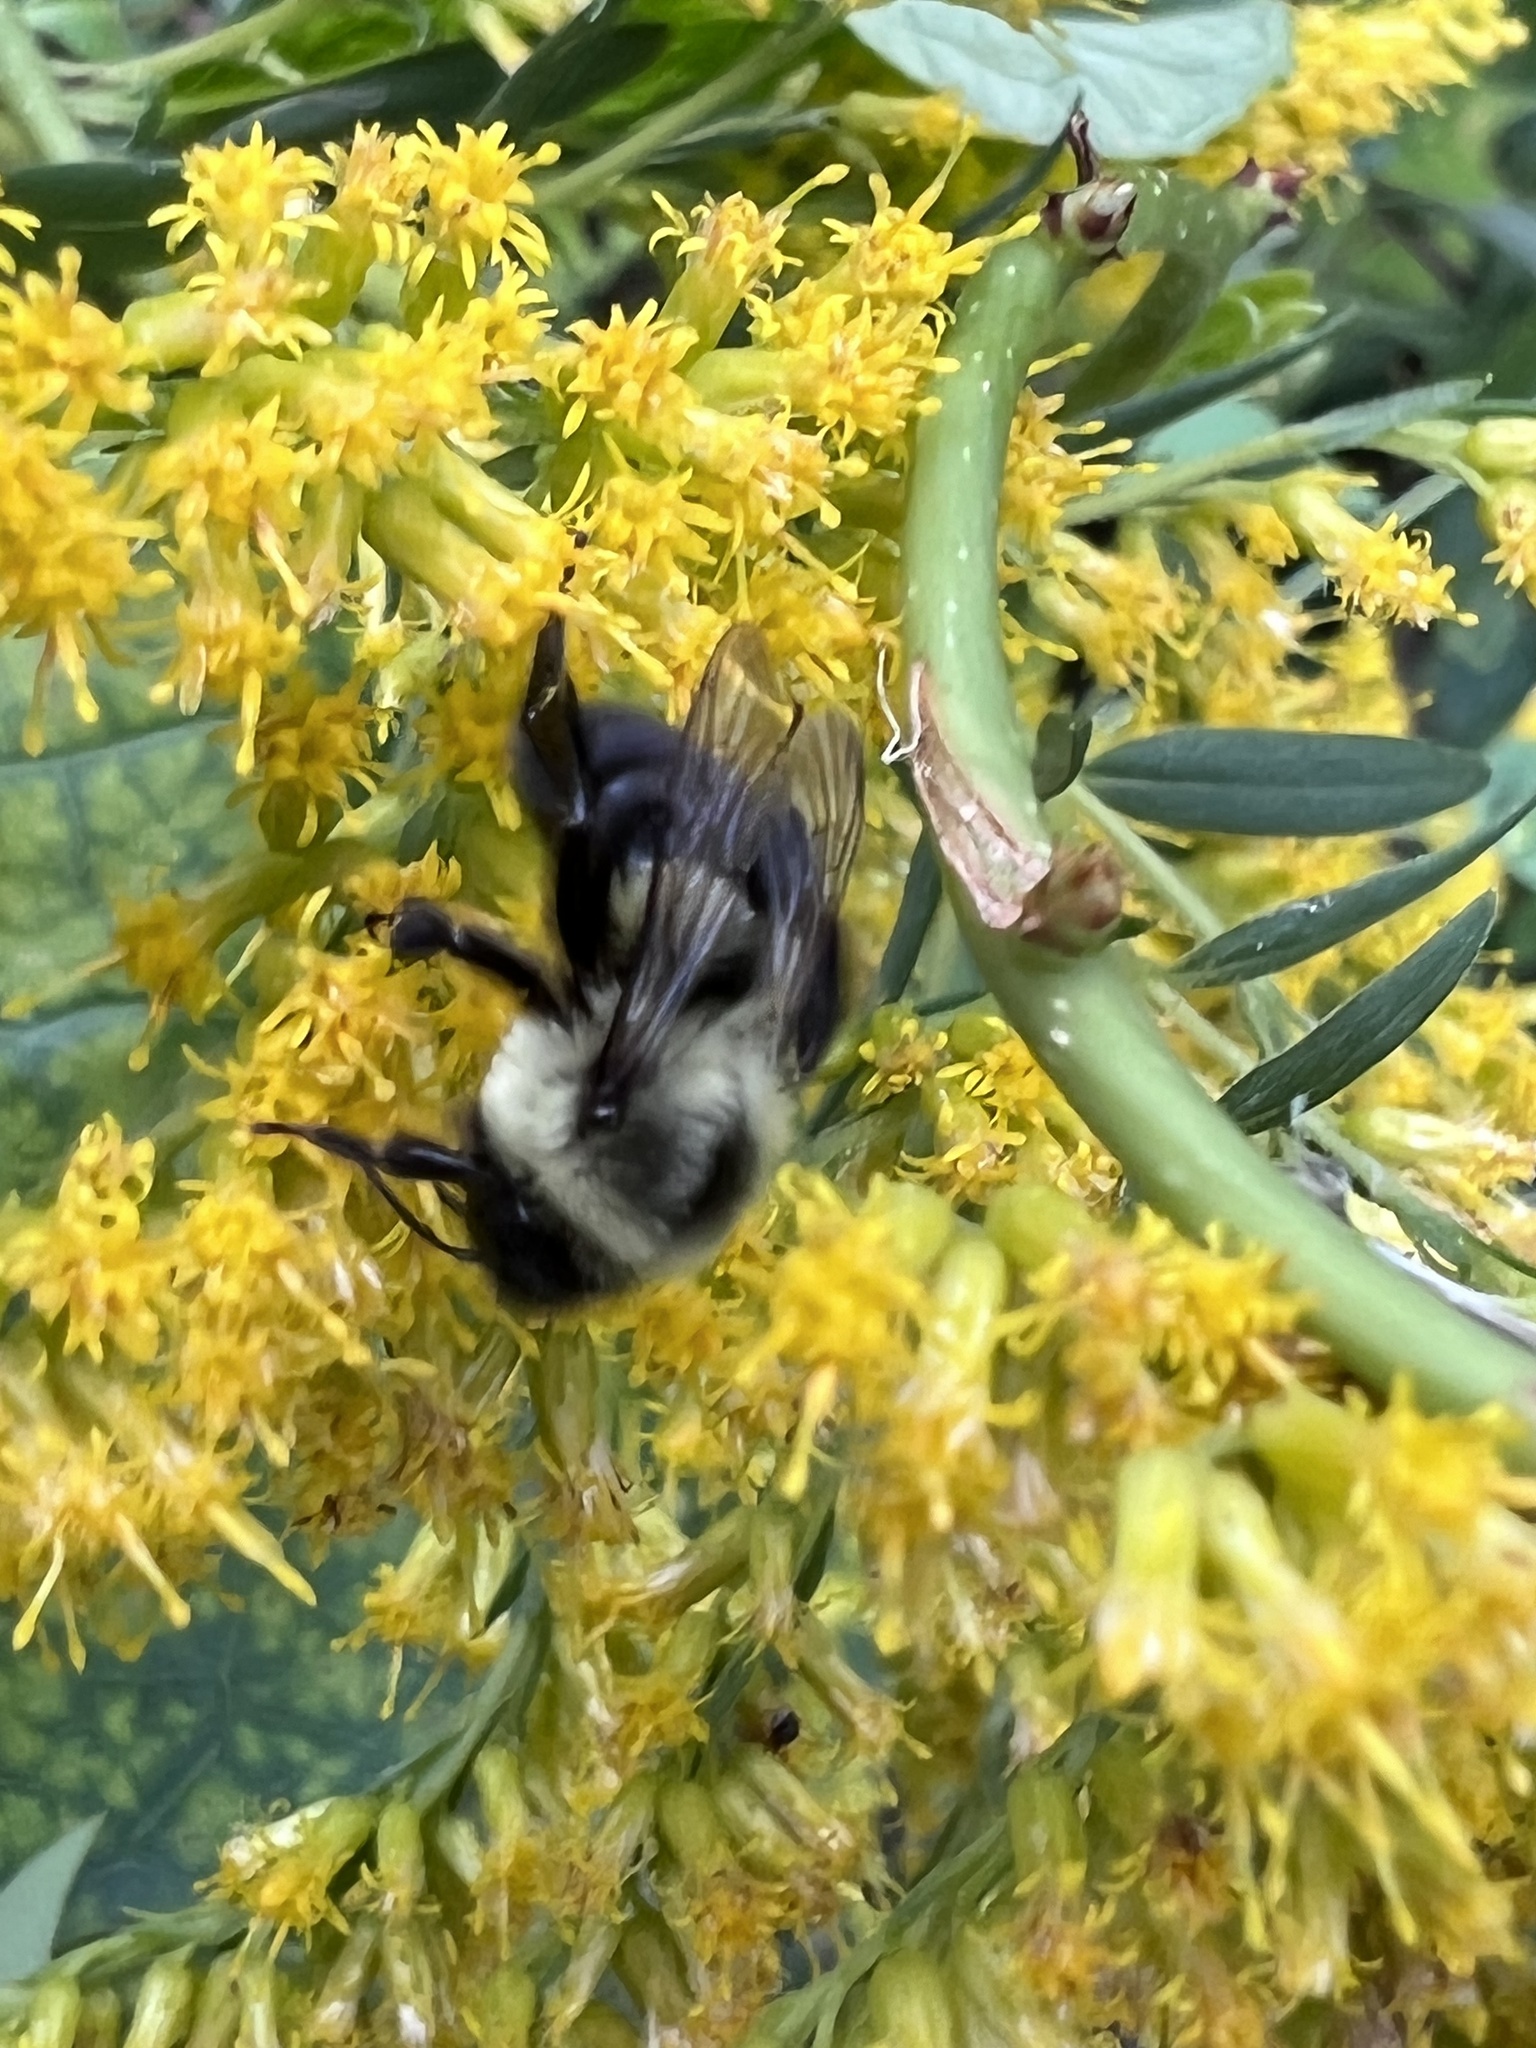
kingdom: Animalia
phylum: Arthropoda
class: Insecta
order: Hymenoptera
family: Apidae
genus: Bombus
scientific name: Bombus impatiens
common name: Common eastern bumble bee
